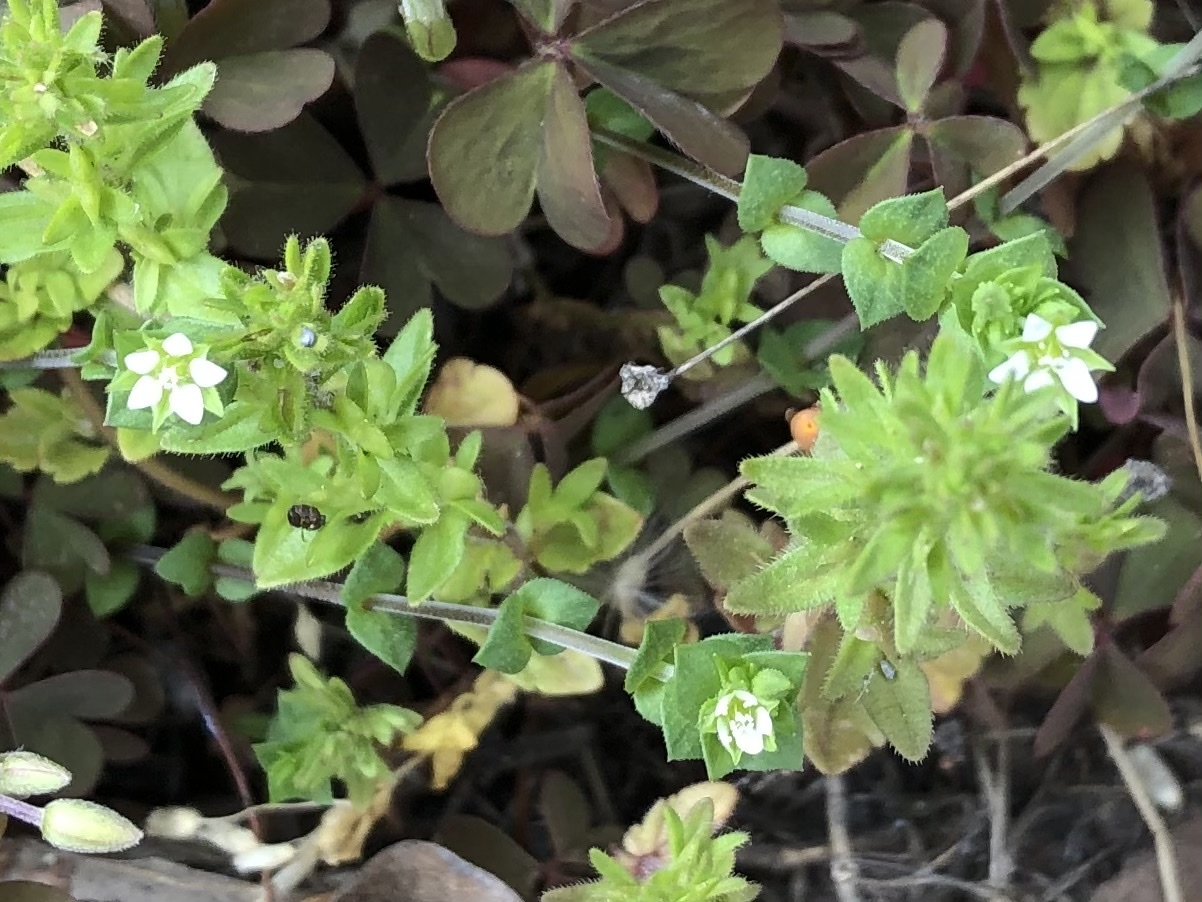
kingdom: Plantae
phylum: Tracheophyta
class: Magnoliopsida
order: Caryophyllales
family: Caryophyllaceae
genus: Arenaria
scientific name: Arenaria serpyllifolia
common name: Thyme-leaved sandwort
